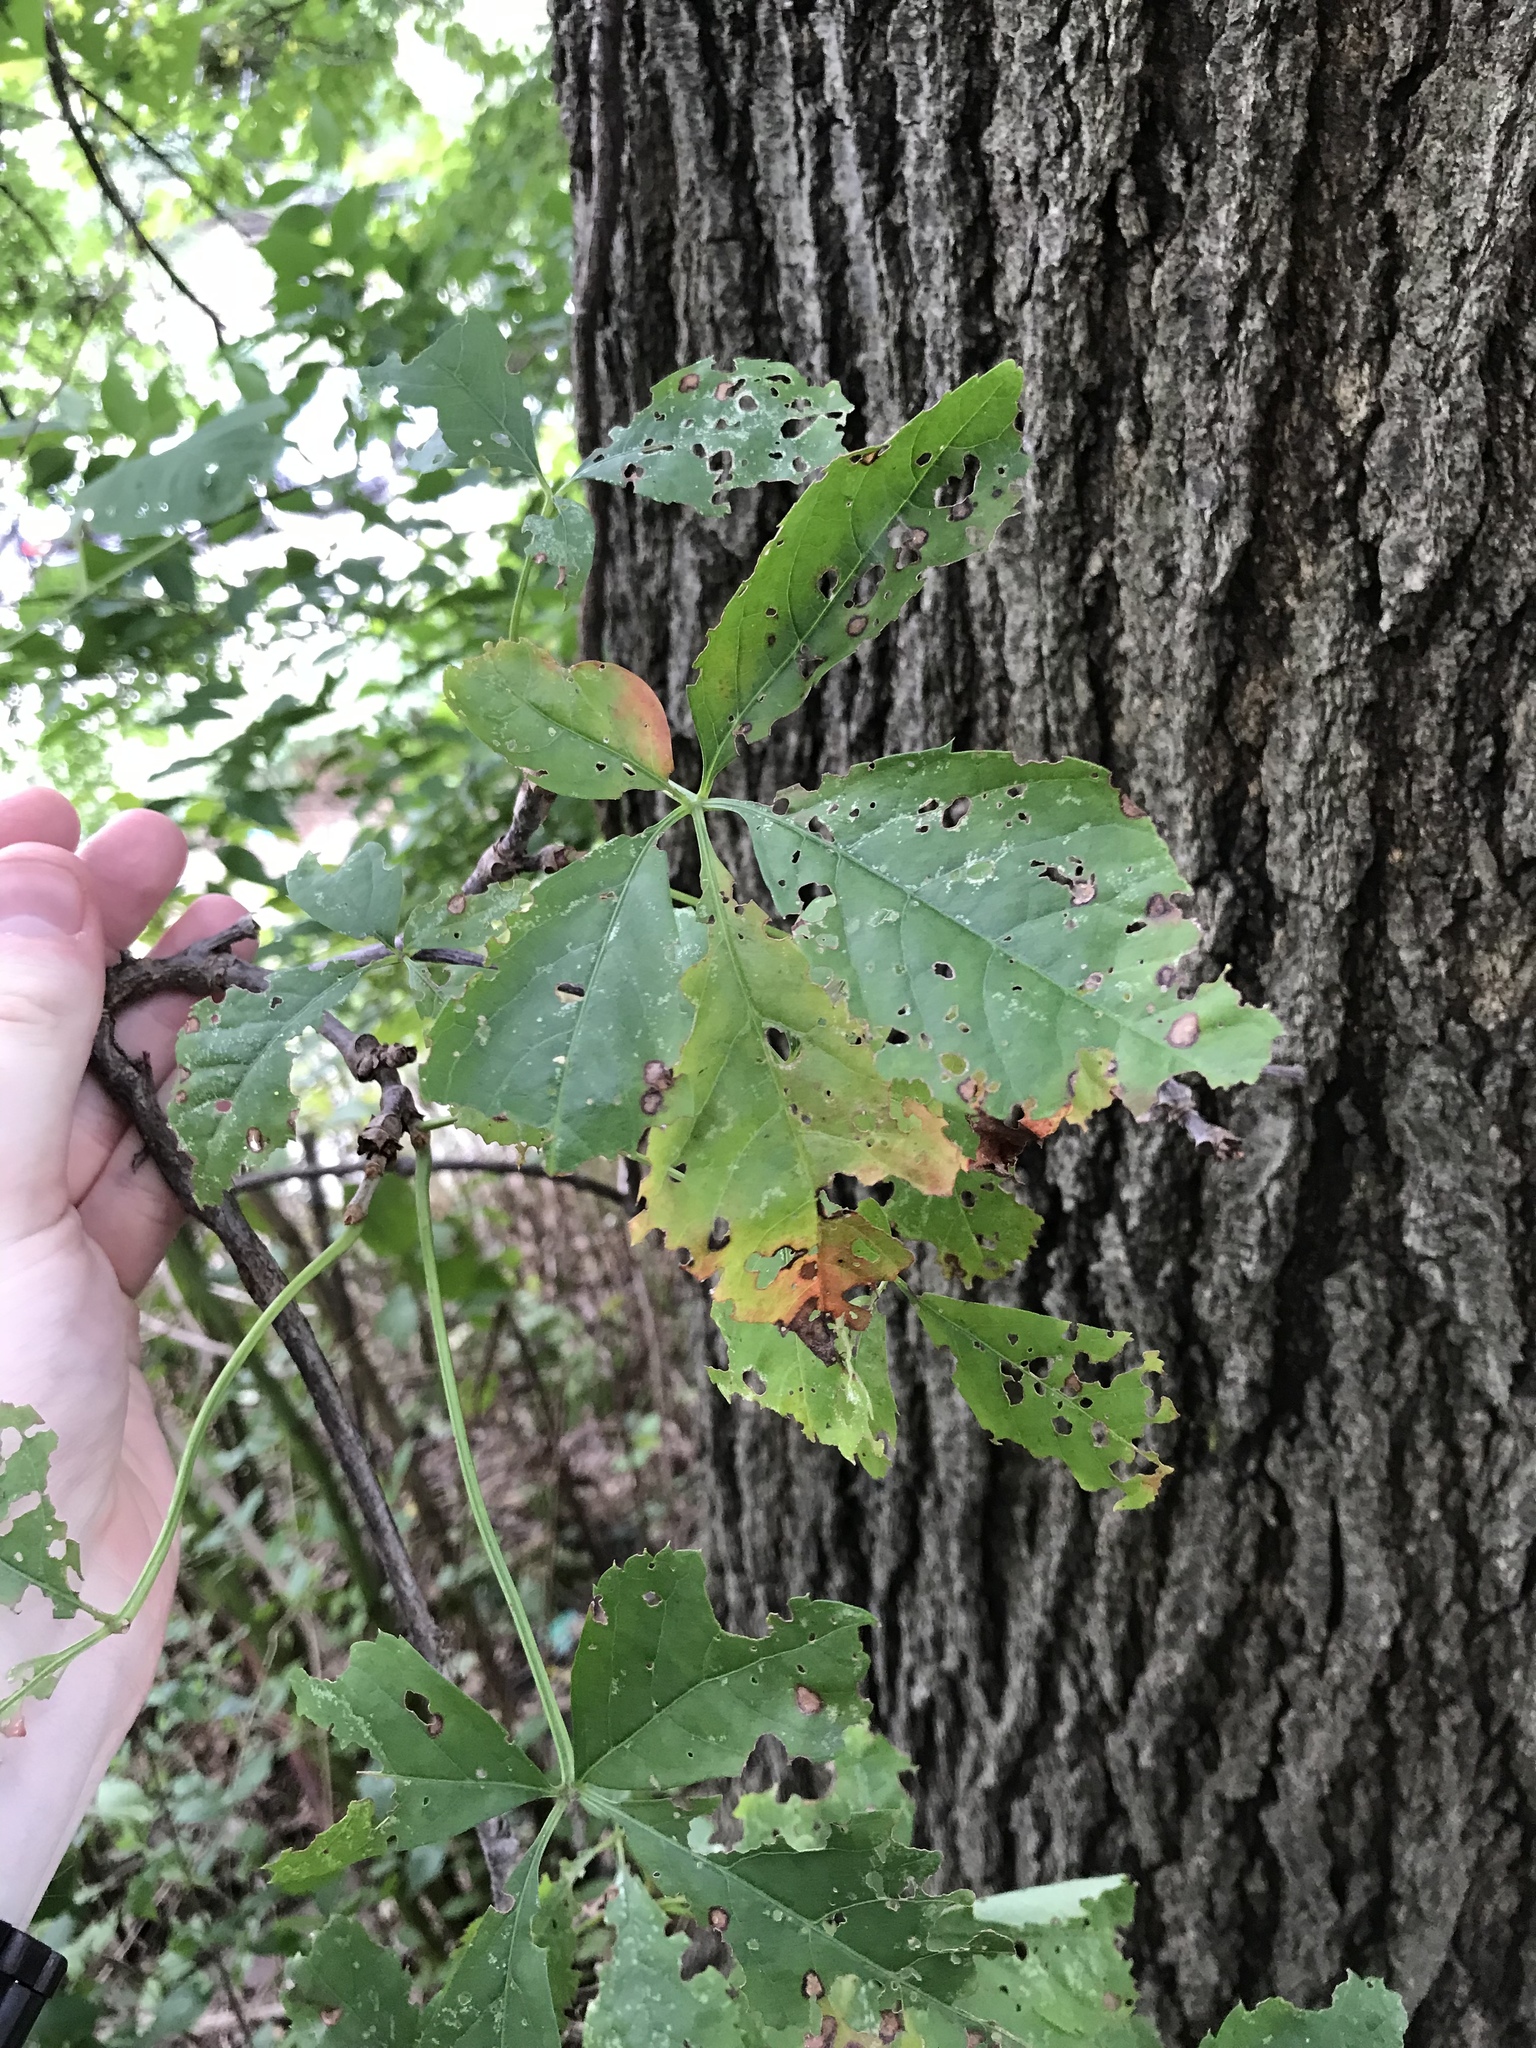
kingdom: Plantae
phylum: Tracheophyta
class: Magnoliopsida
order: Vitales
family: Vitaceae
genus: Parthenocissus
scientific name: Parthenocissus quinquefolia
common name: Virginia-creeper
